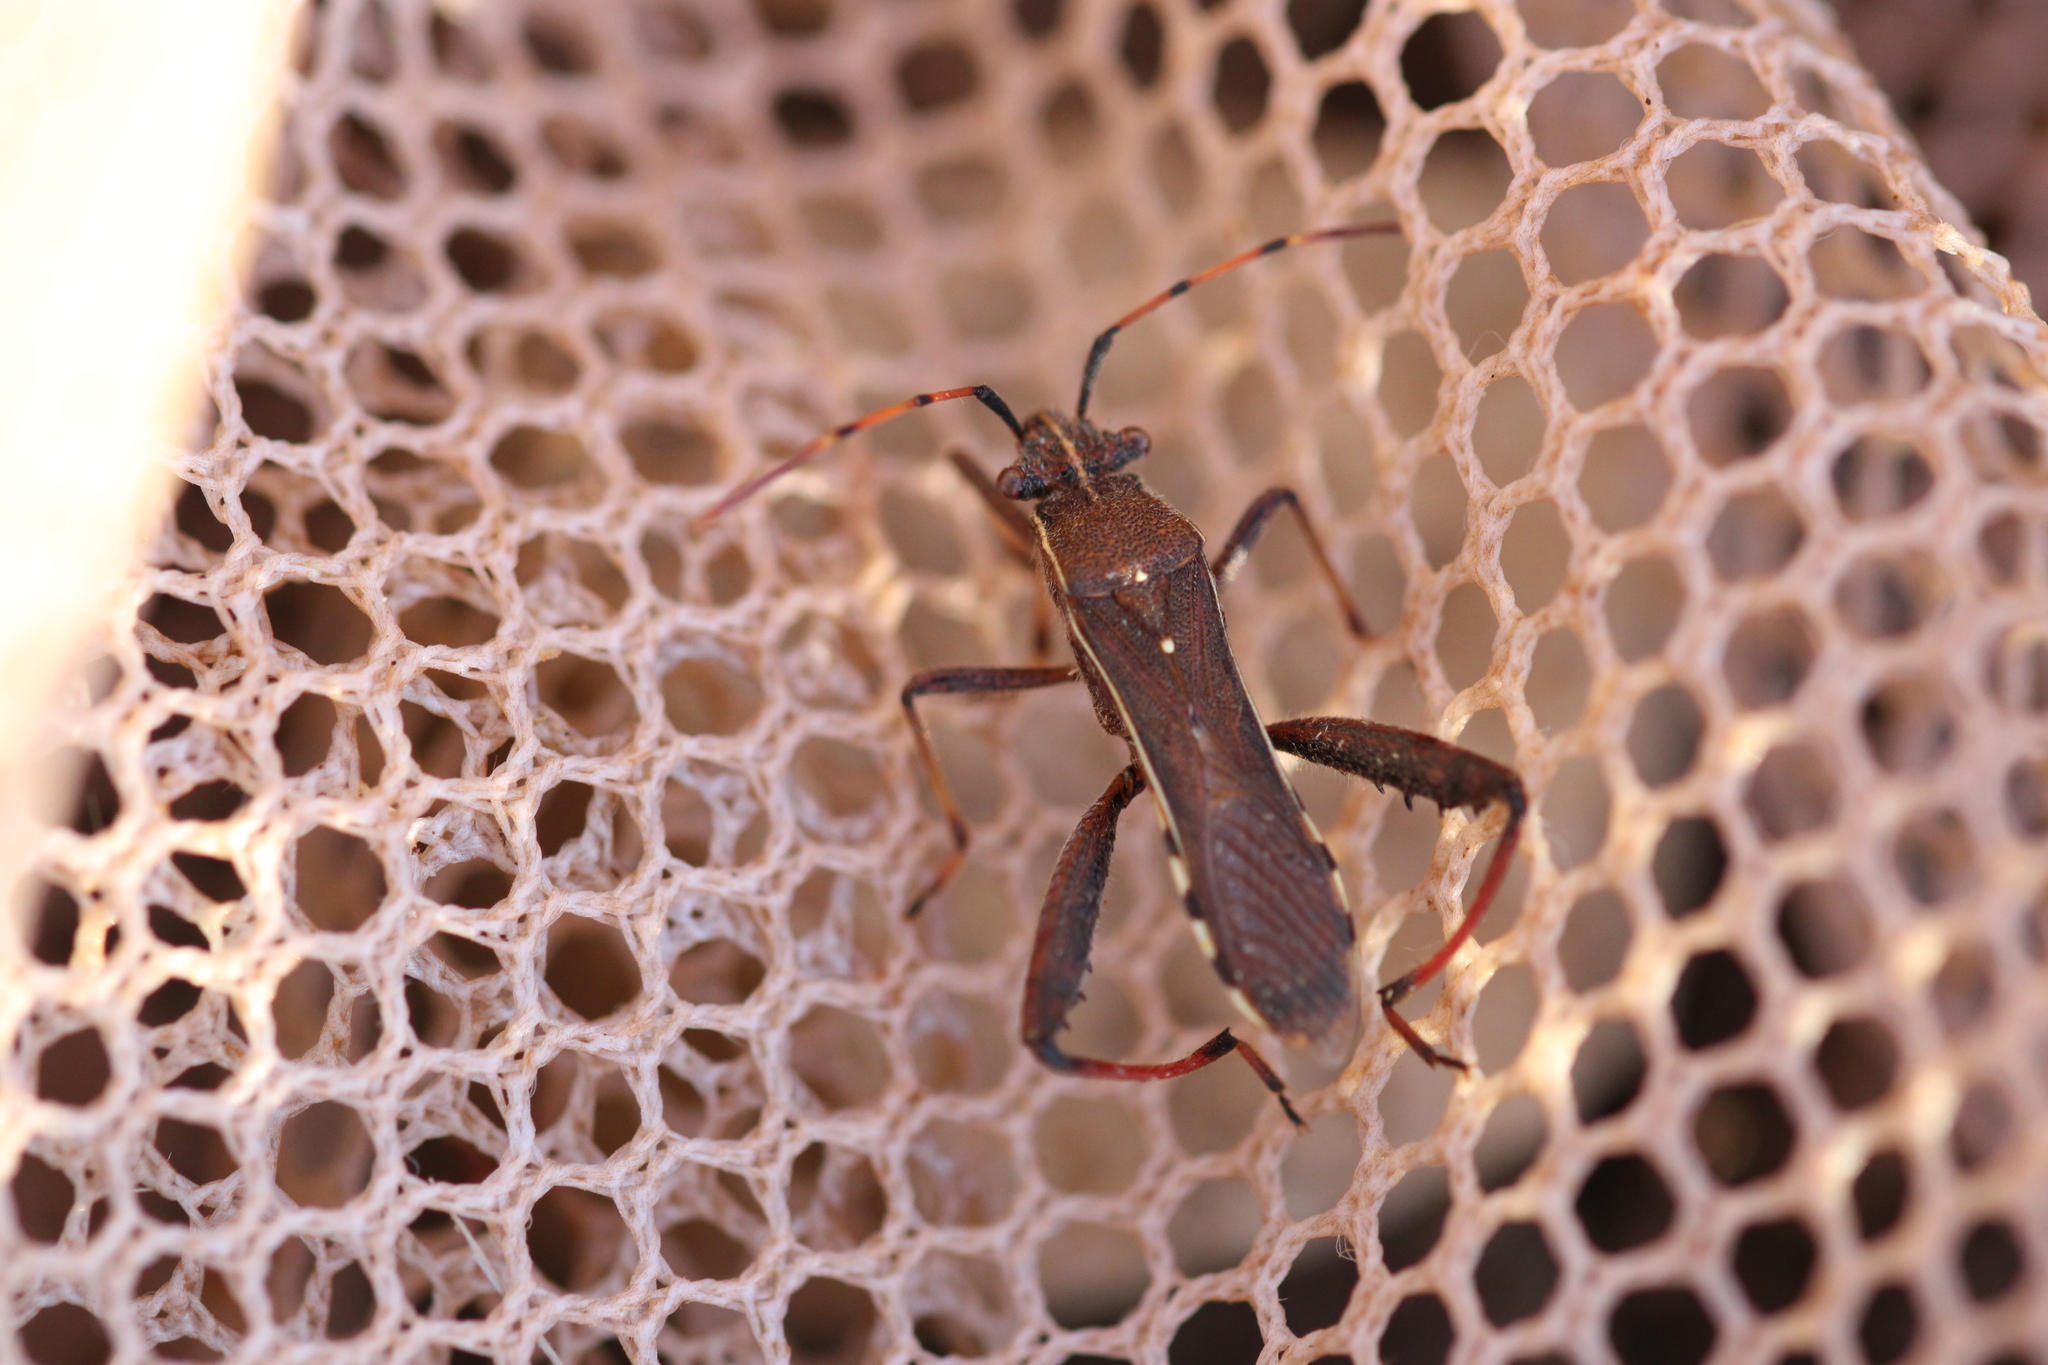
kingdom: Animalia
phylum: Arthropoda
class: Insecta
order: Hemiptera
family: Alydidae
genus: Camptopus
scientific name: Camptopus lateralis
